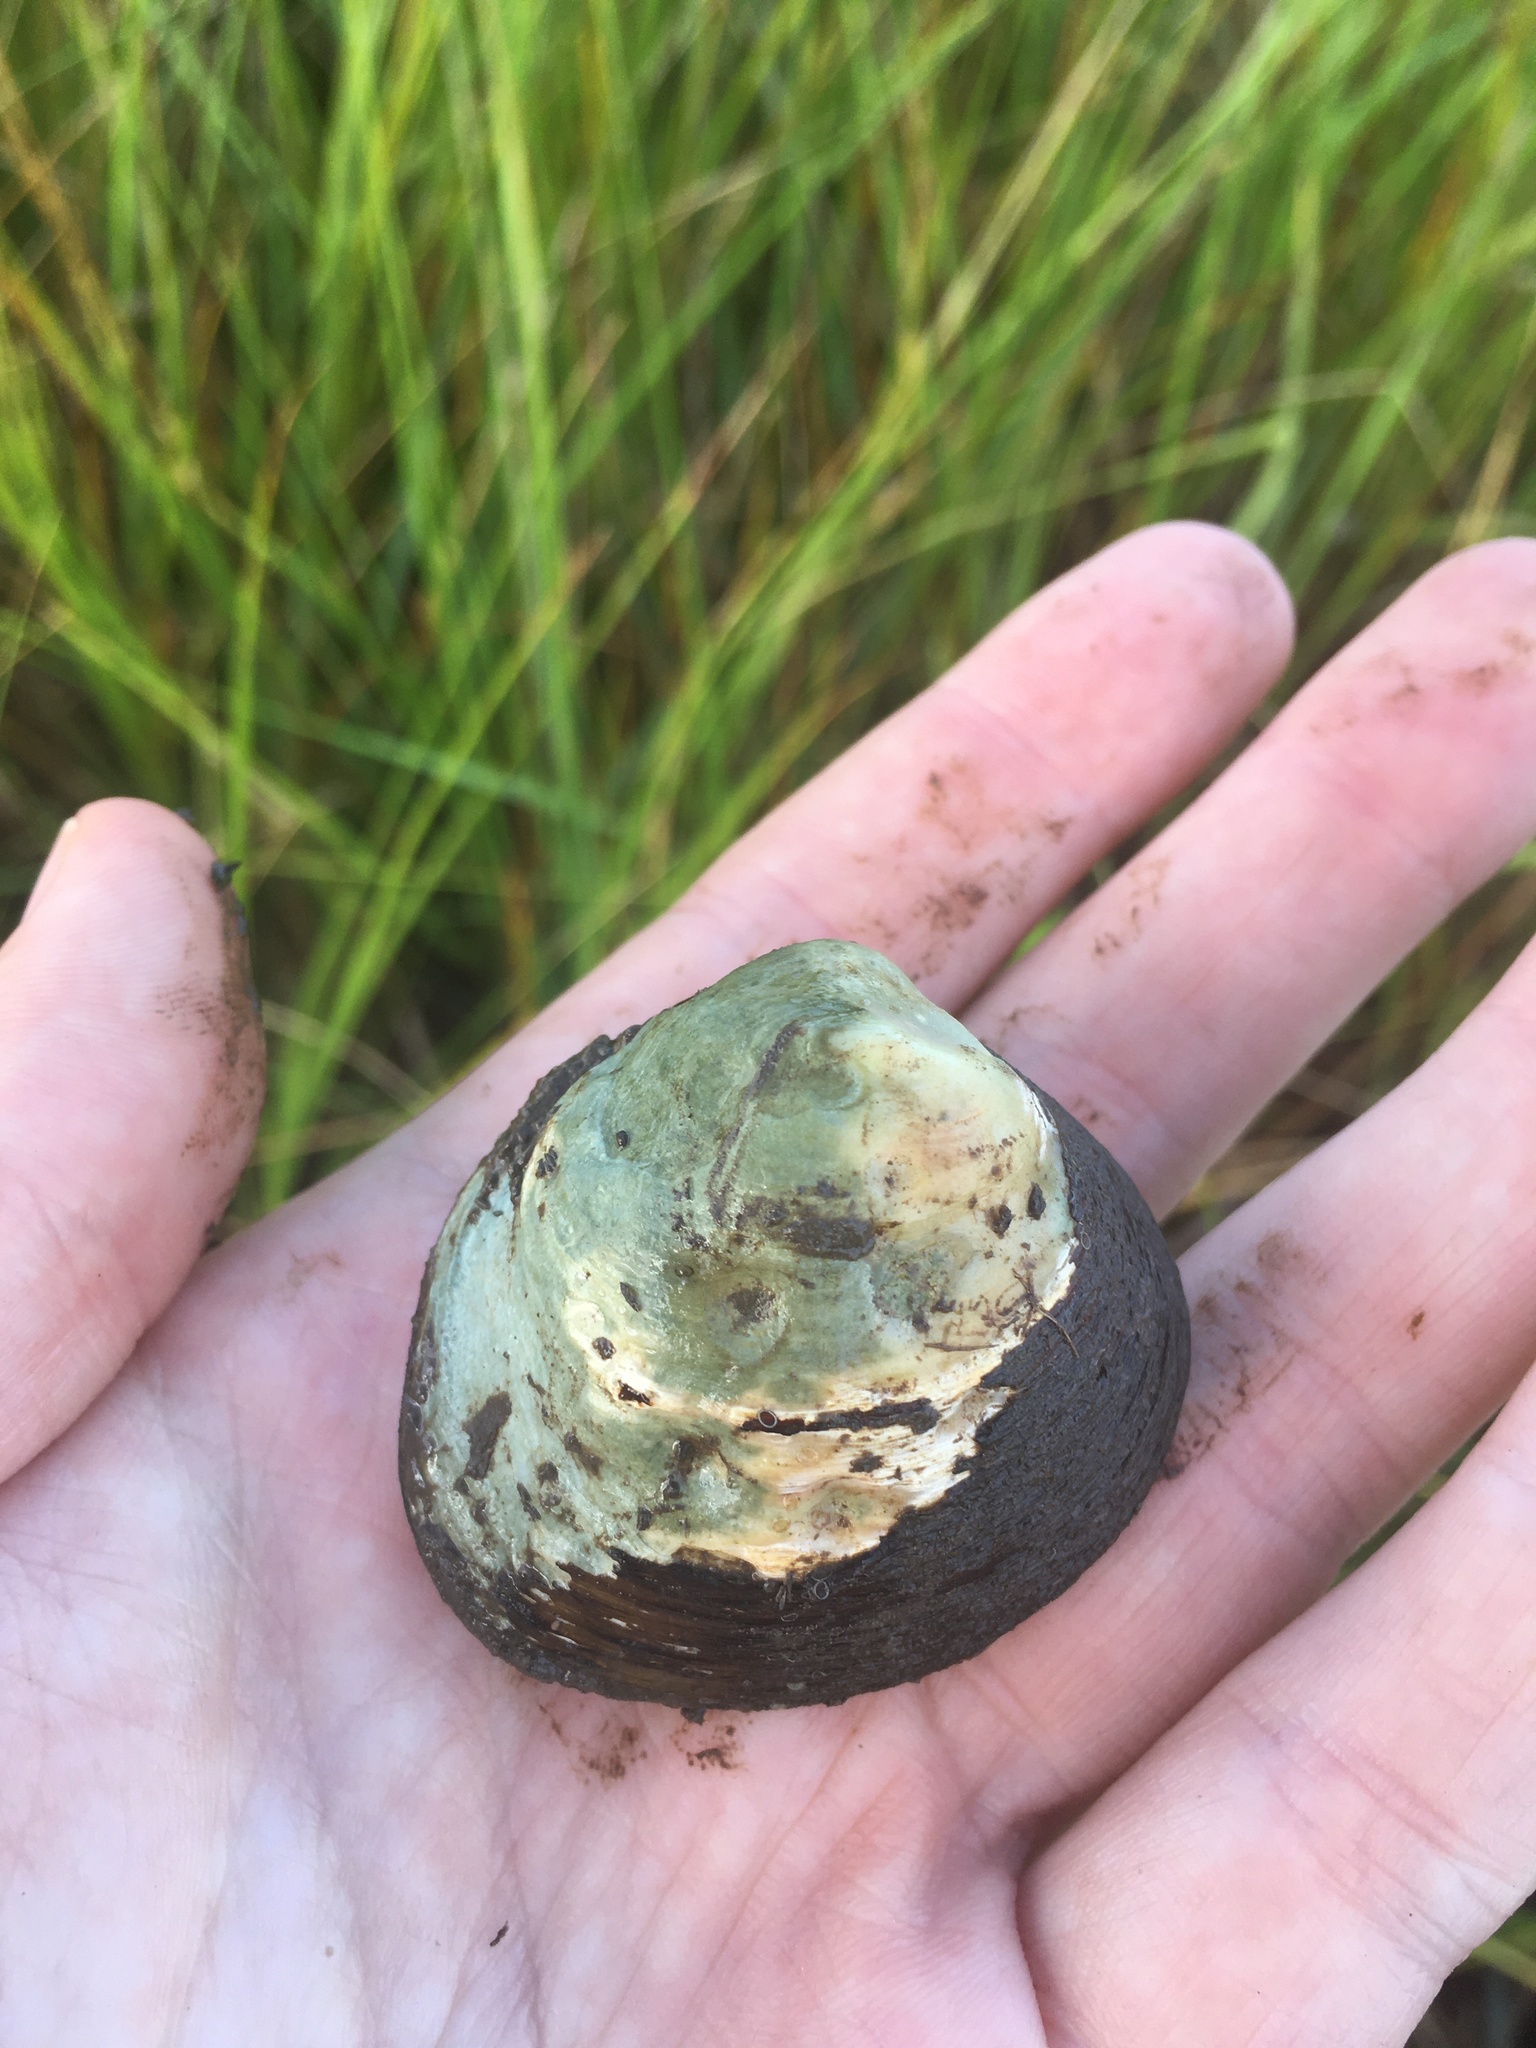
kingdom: Animalia
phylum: Mollusca
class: Bivalvia
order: Venerida
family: Cyrenidae
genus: Polymesoda
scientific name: Polymesoda caroliniana
